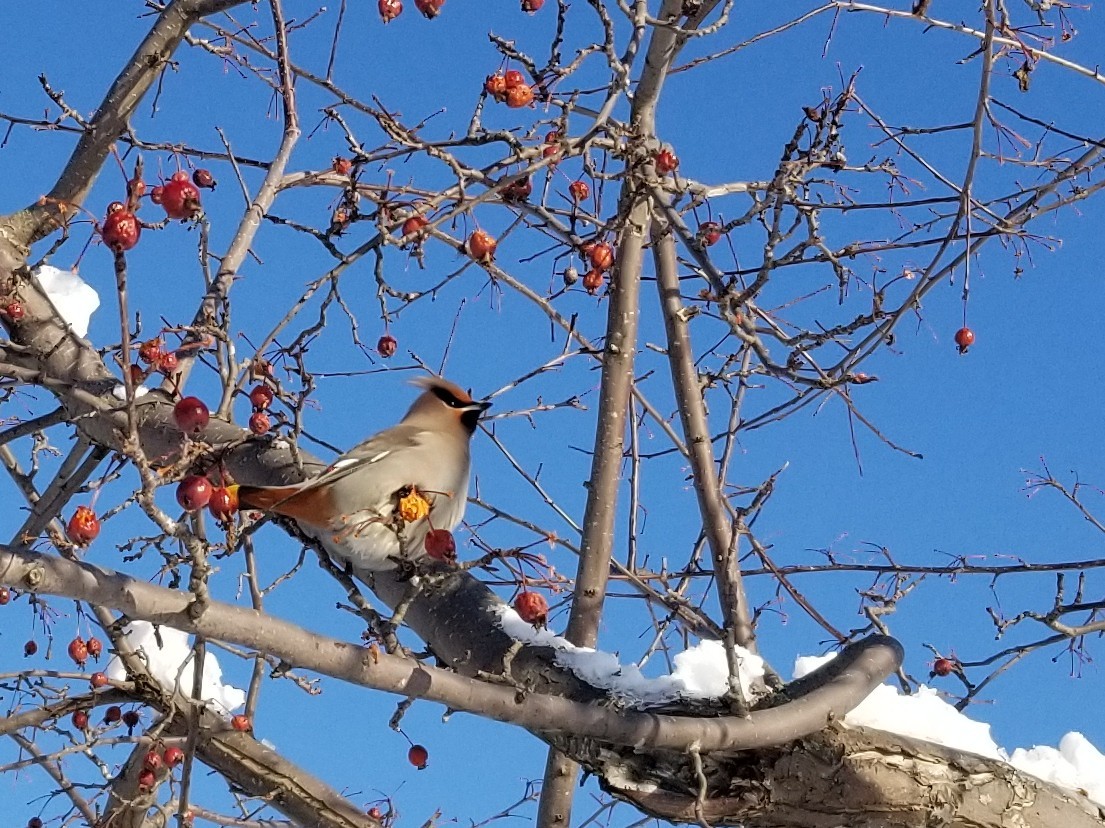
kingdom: Animalia
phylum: Chordata
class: Aves
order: Passeriformes
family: Bombycillidae
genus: Bombycilla
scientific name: Bombycilla garrulus
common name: Bohemian waxwing
